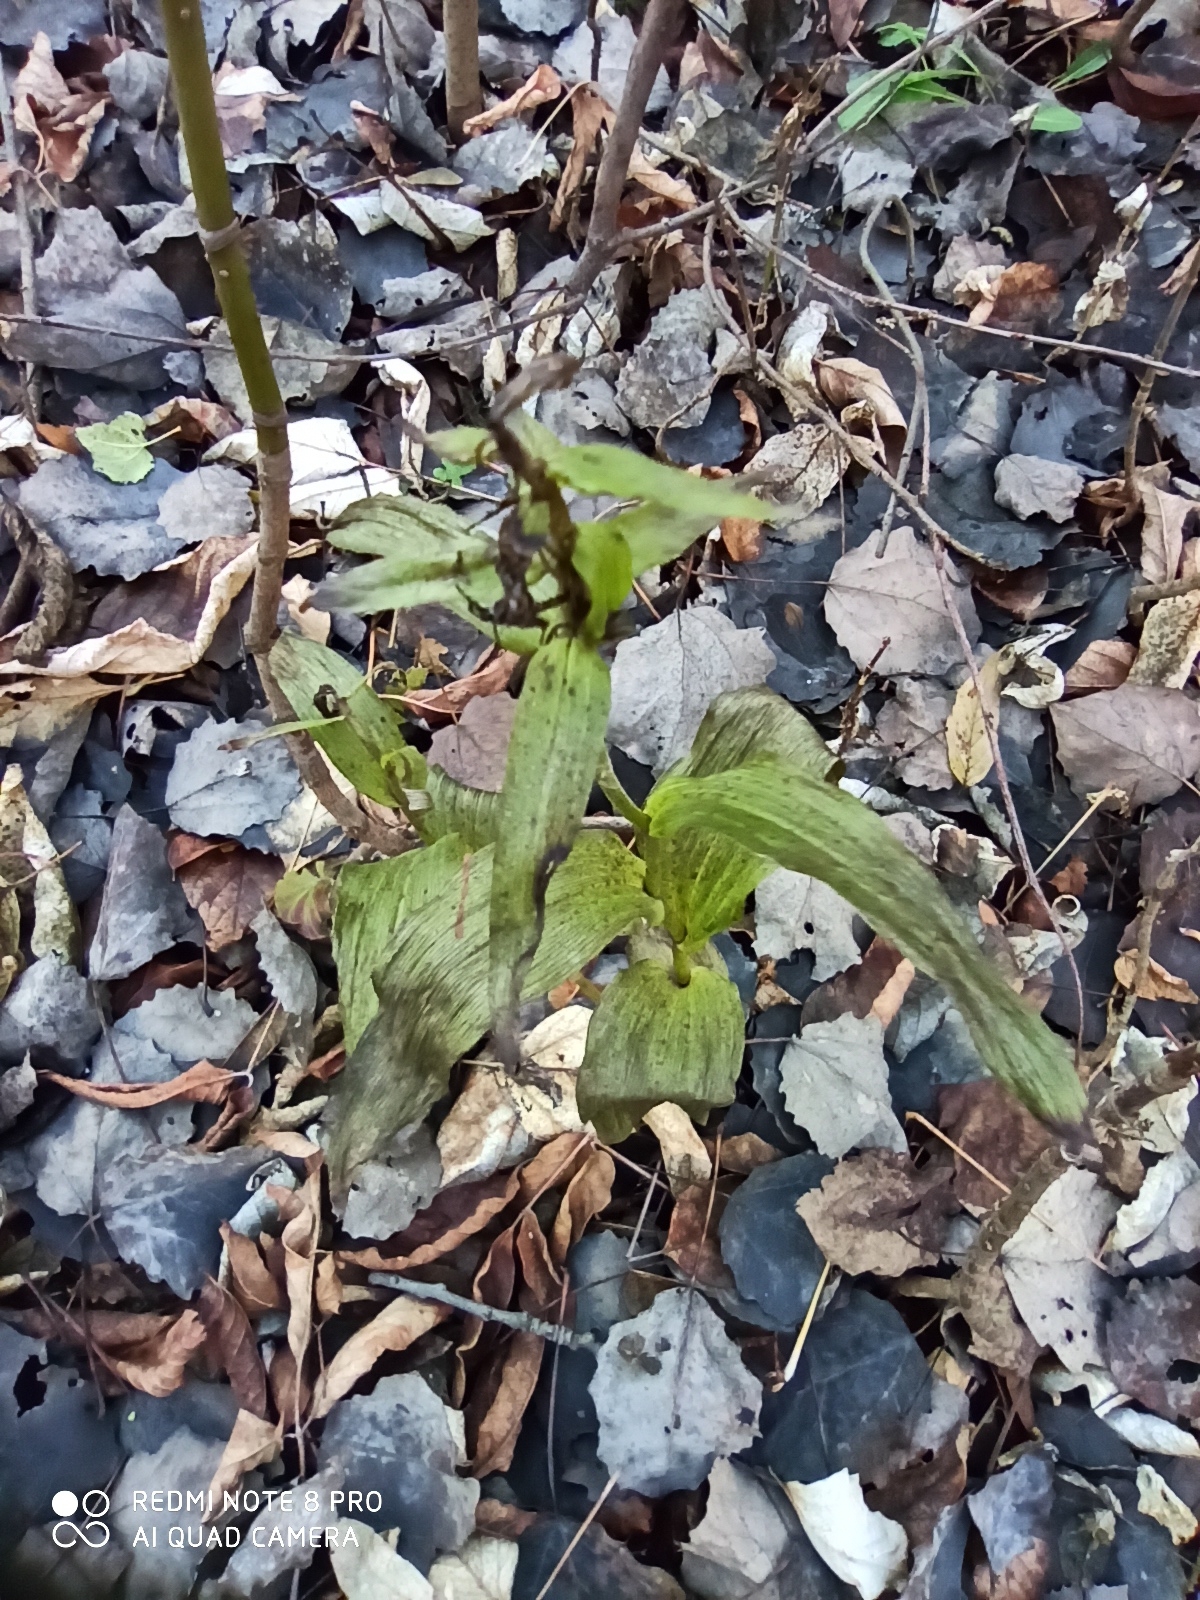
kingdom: Plantae
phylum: Tracheophyta
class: Liliopsida
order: Asparagales
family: Orchidaceae
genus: Epipactis
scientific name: Epipactis helleborine
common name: Broad-leaved helleborine
